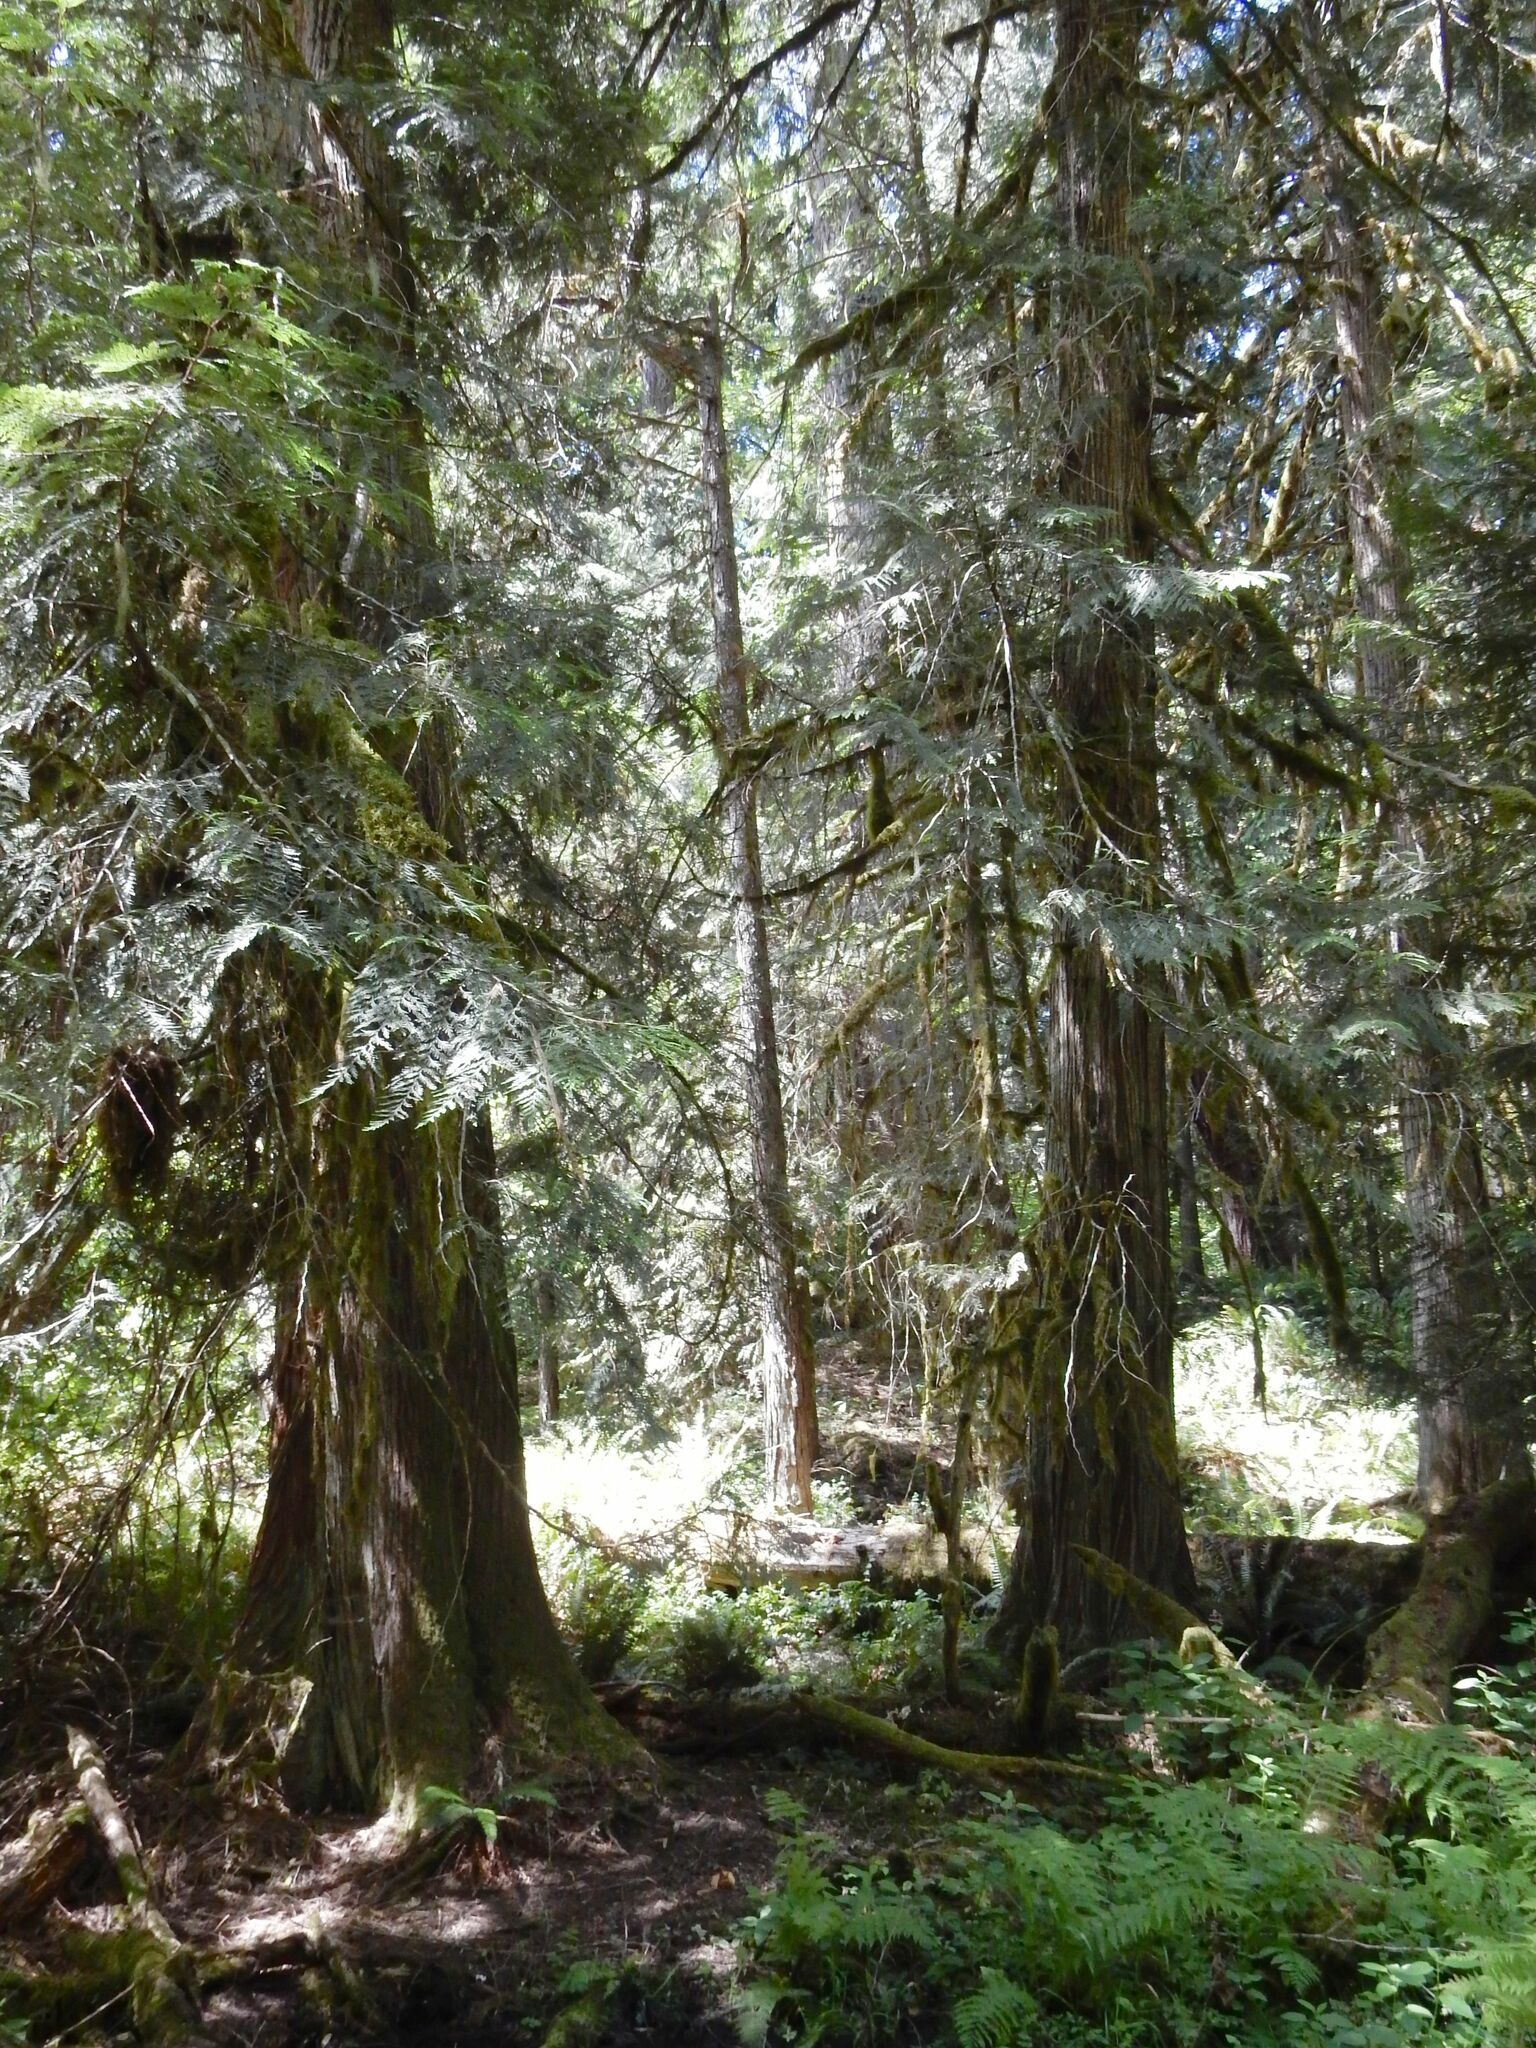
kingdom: Plantae
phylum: Tracheophyta
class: Pinopsida
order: Pinales
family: Cupressaceae
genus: Thuja
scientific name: Thuja plicata
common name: Western red-cedar
